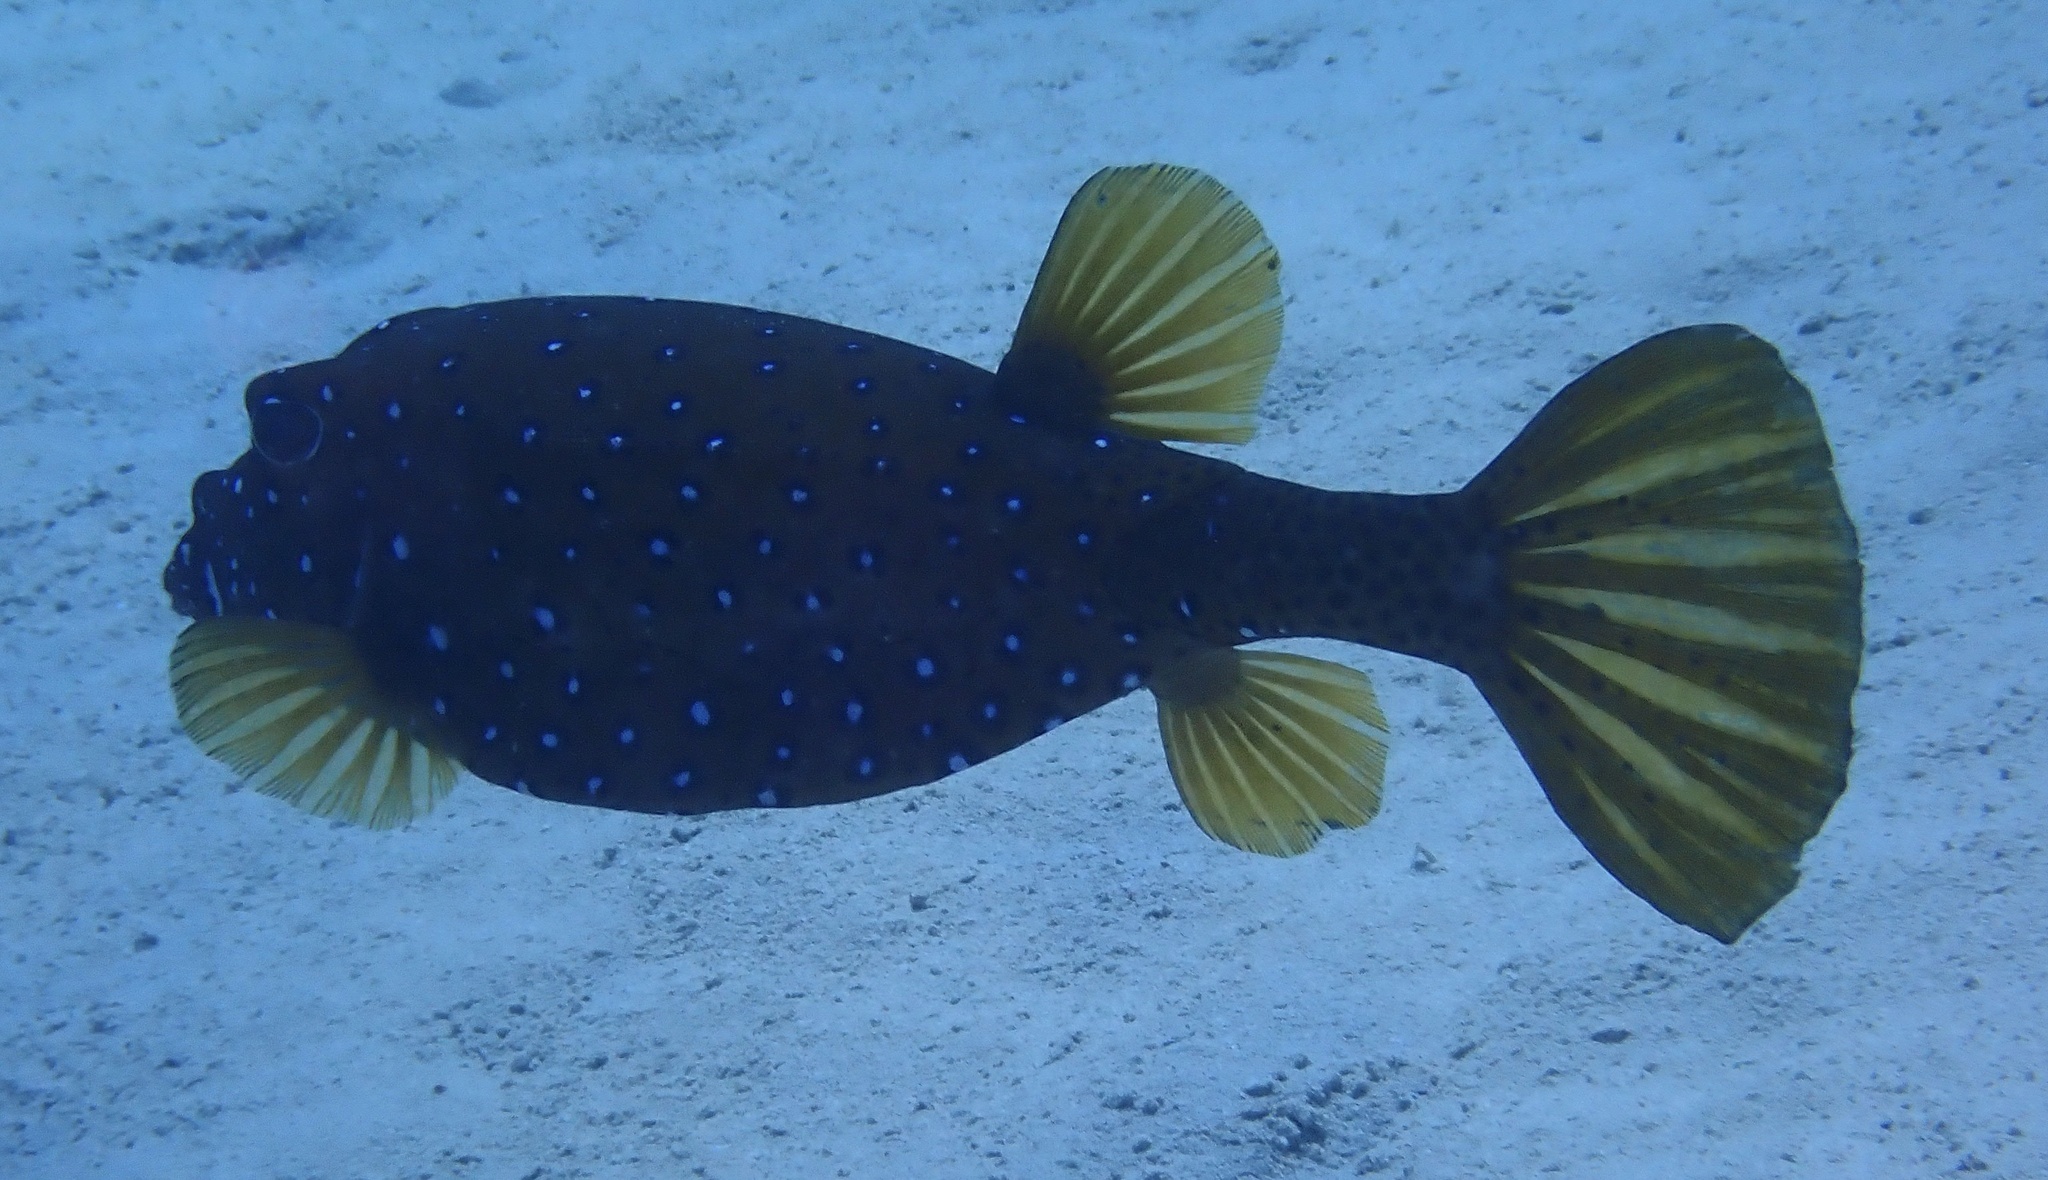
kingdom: Animalia
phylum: Chordata
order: Tetraodontiformes
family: Ostraciidae
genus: Ostracion
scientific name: Ostracion cubicus
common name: Cube trunkfish
